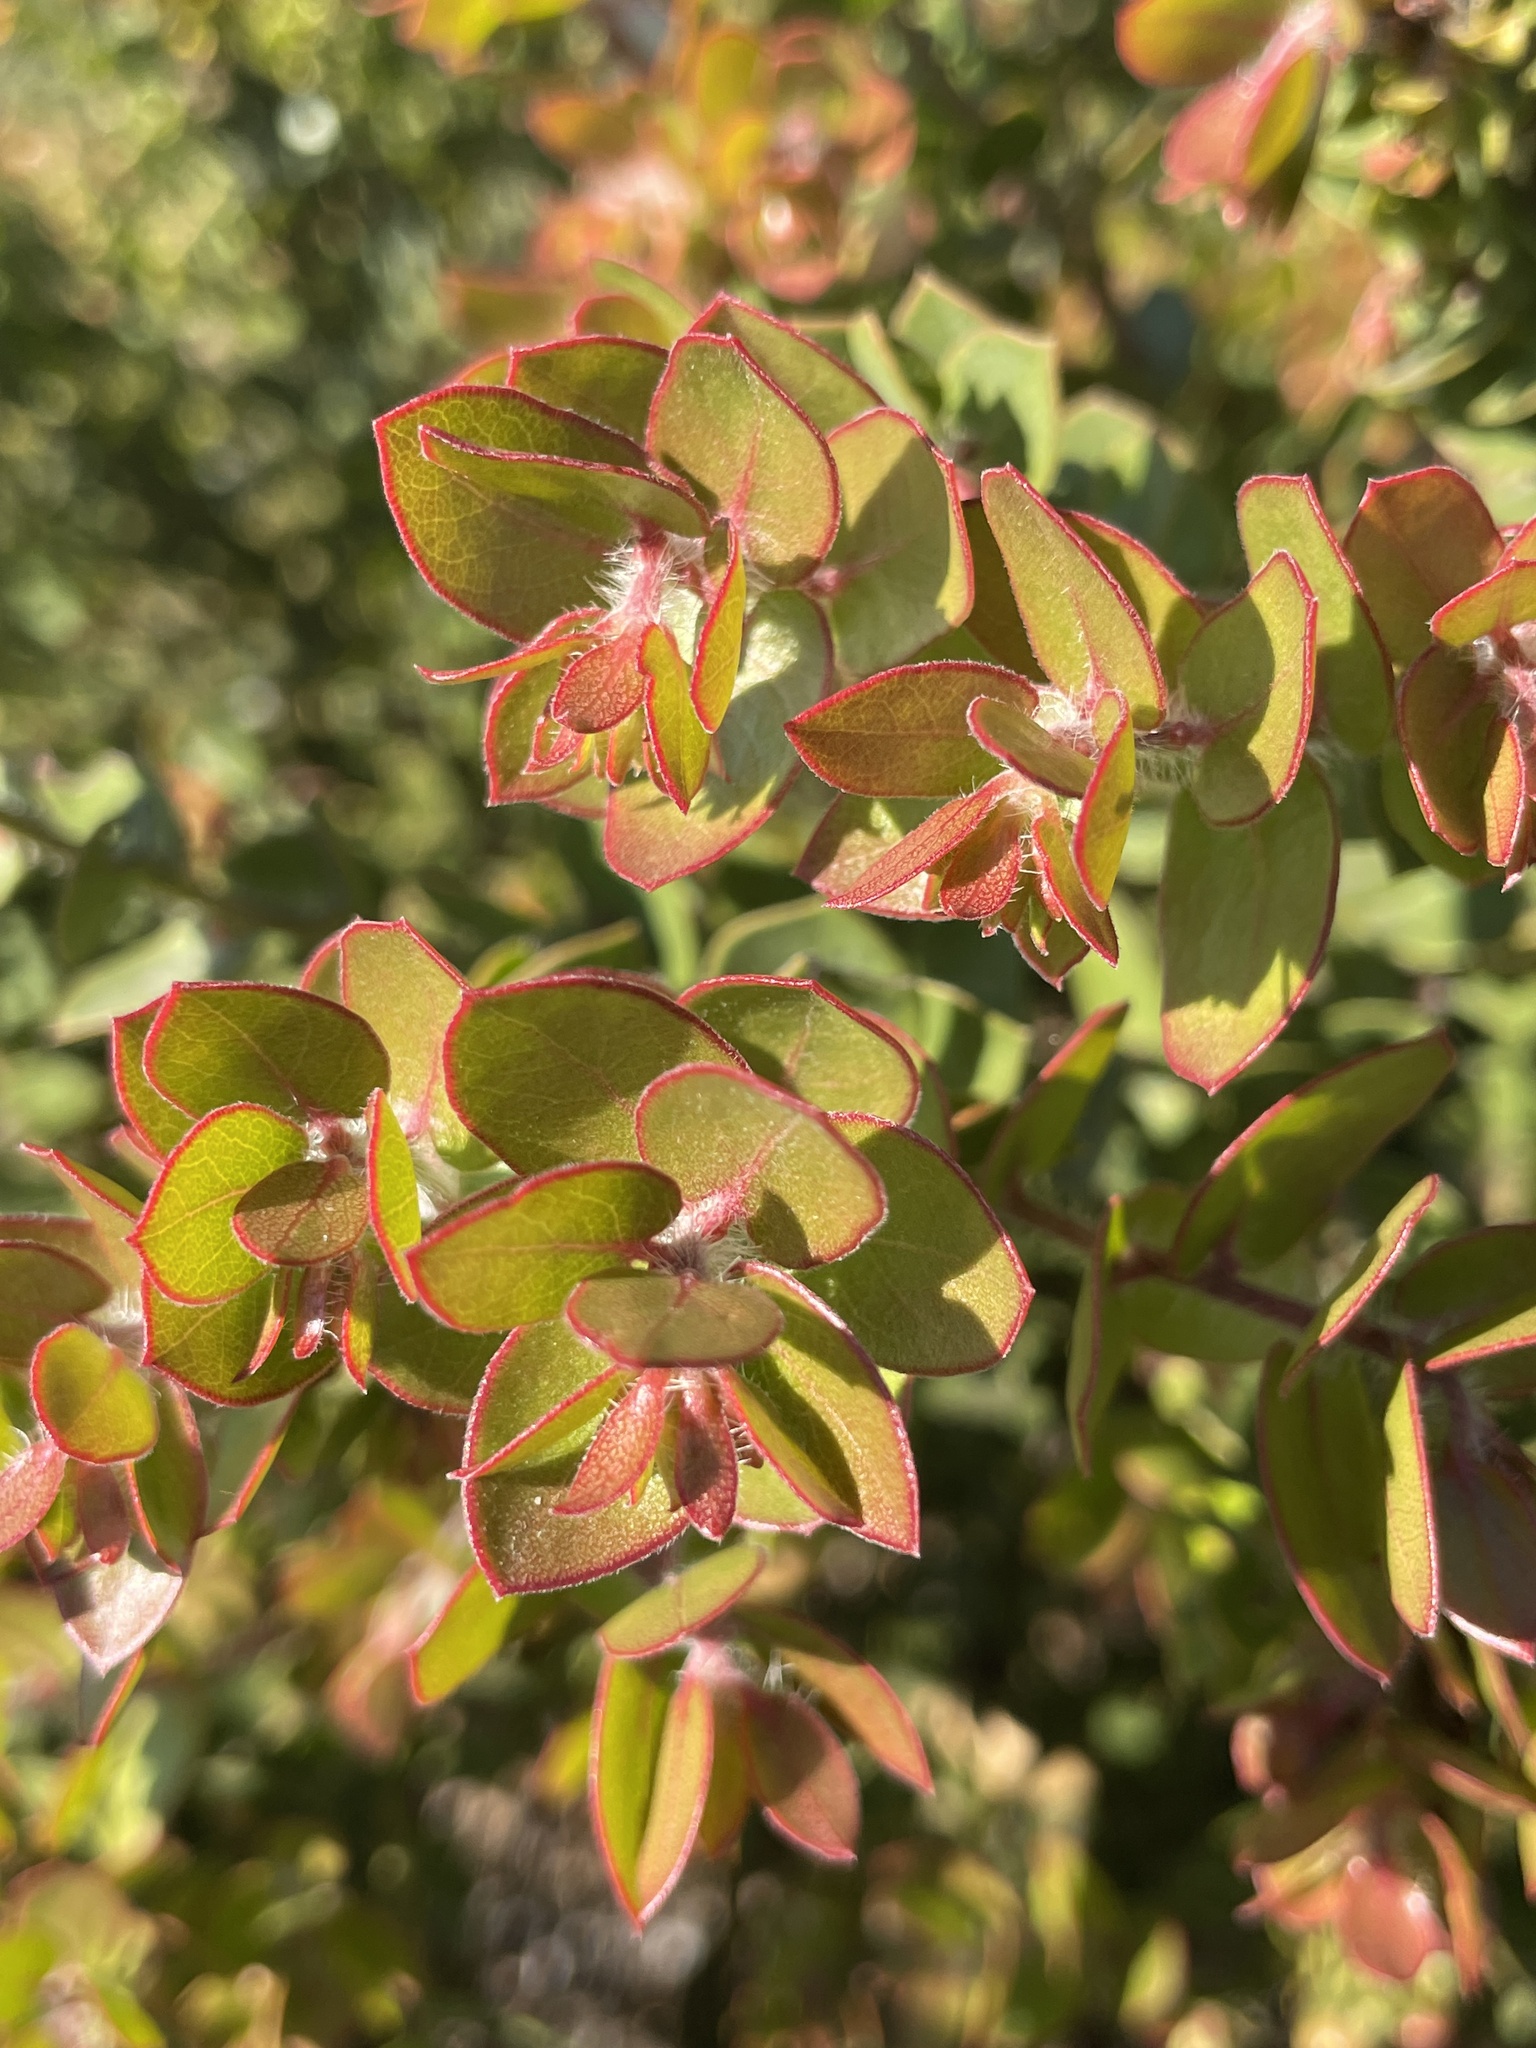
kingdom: Plantae
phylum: Tracheophyta
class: Magnoliopsida
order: Ericales
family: Ericaceae
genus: Arctostaphylos
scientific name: Arctostaphylos purissima
